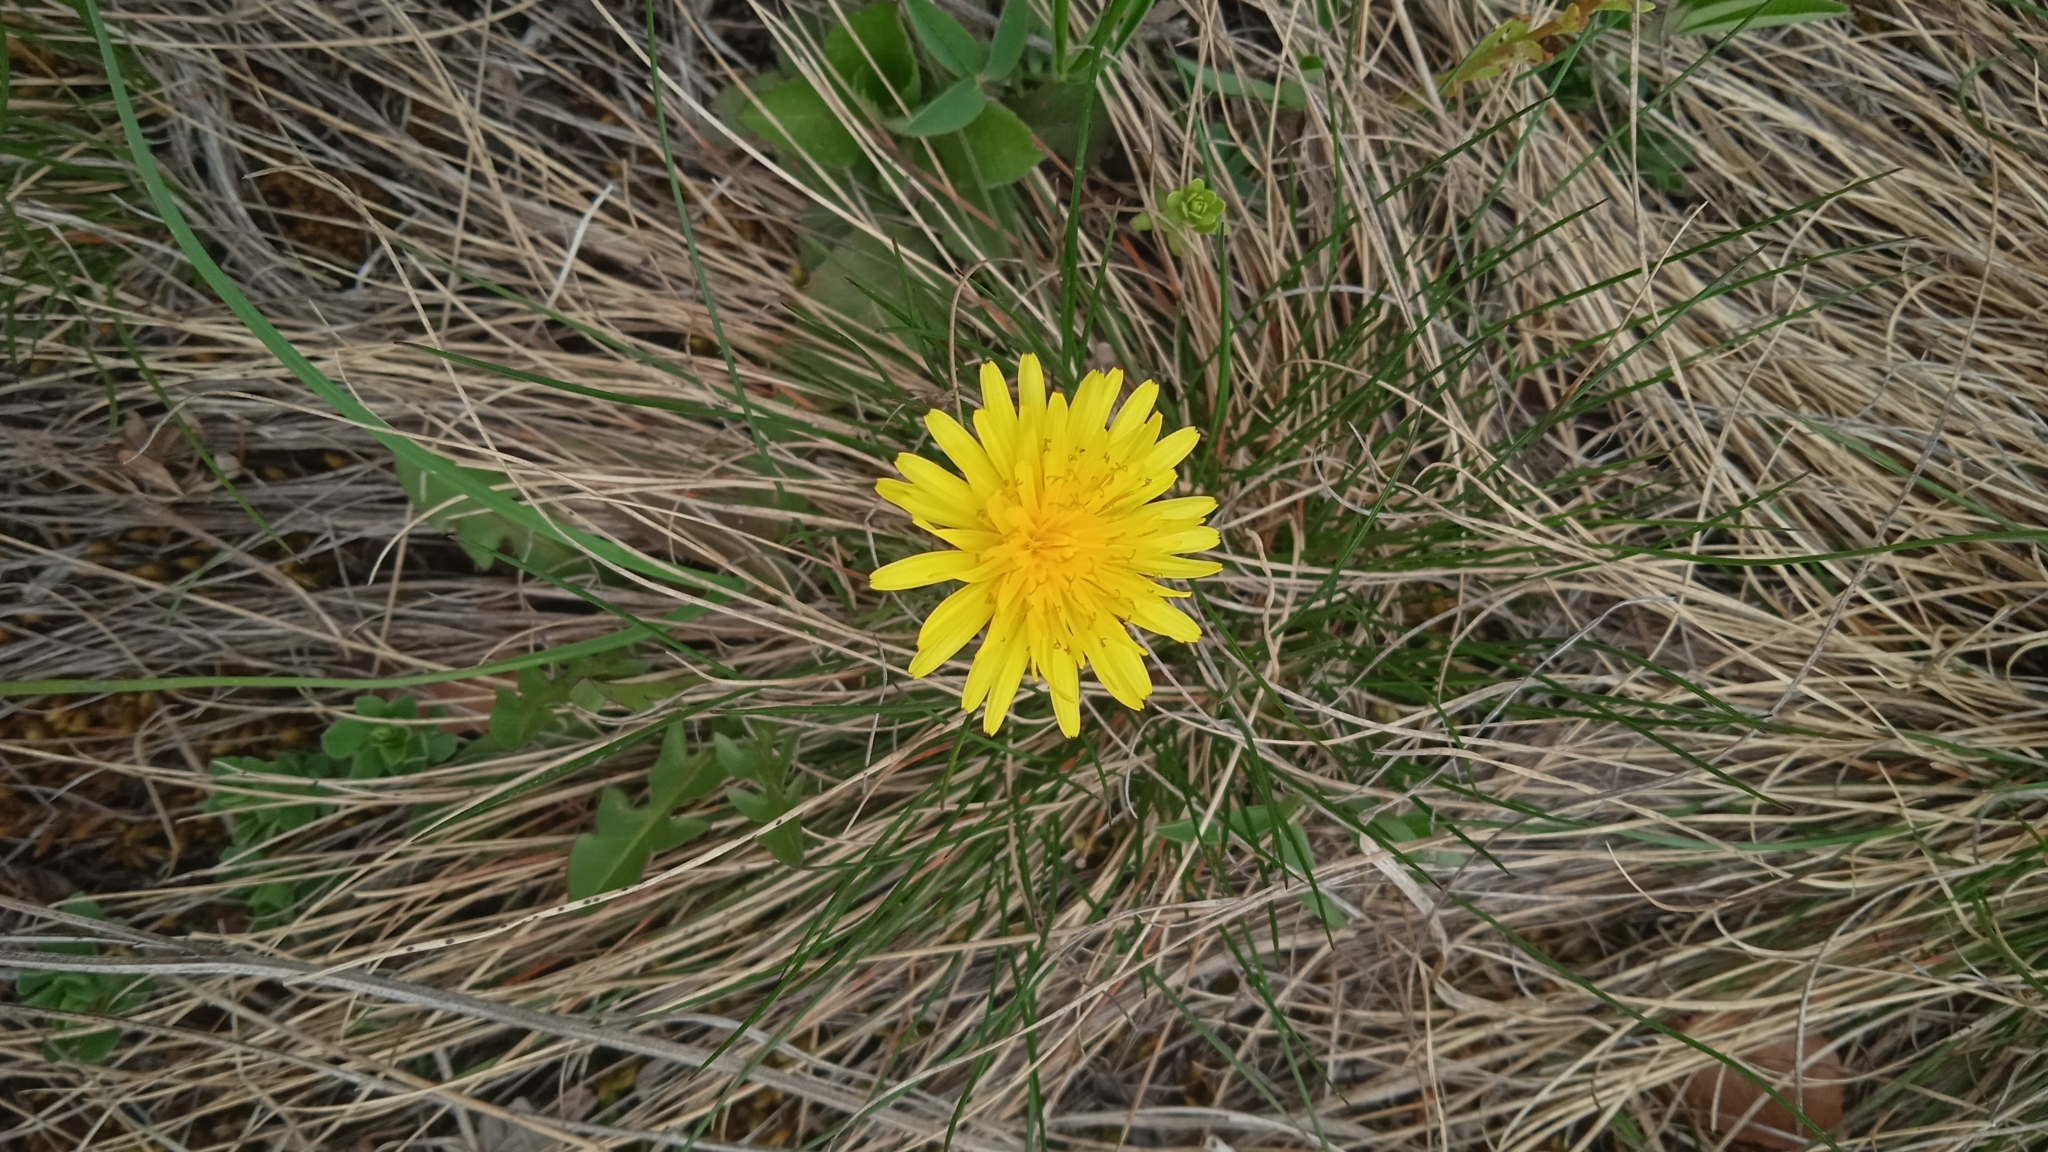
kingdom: Plantae
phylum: Tracheophyta
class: Magnoliopsida
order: Asterales
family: Asteraceae
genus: Taraxacum
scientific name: Taraxacum
